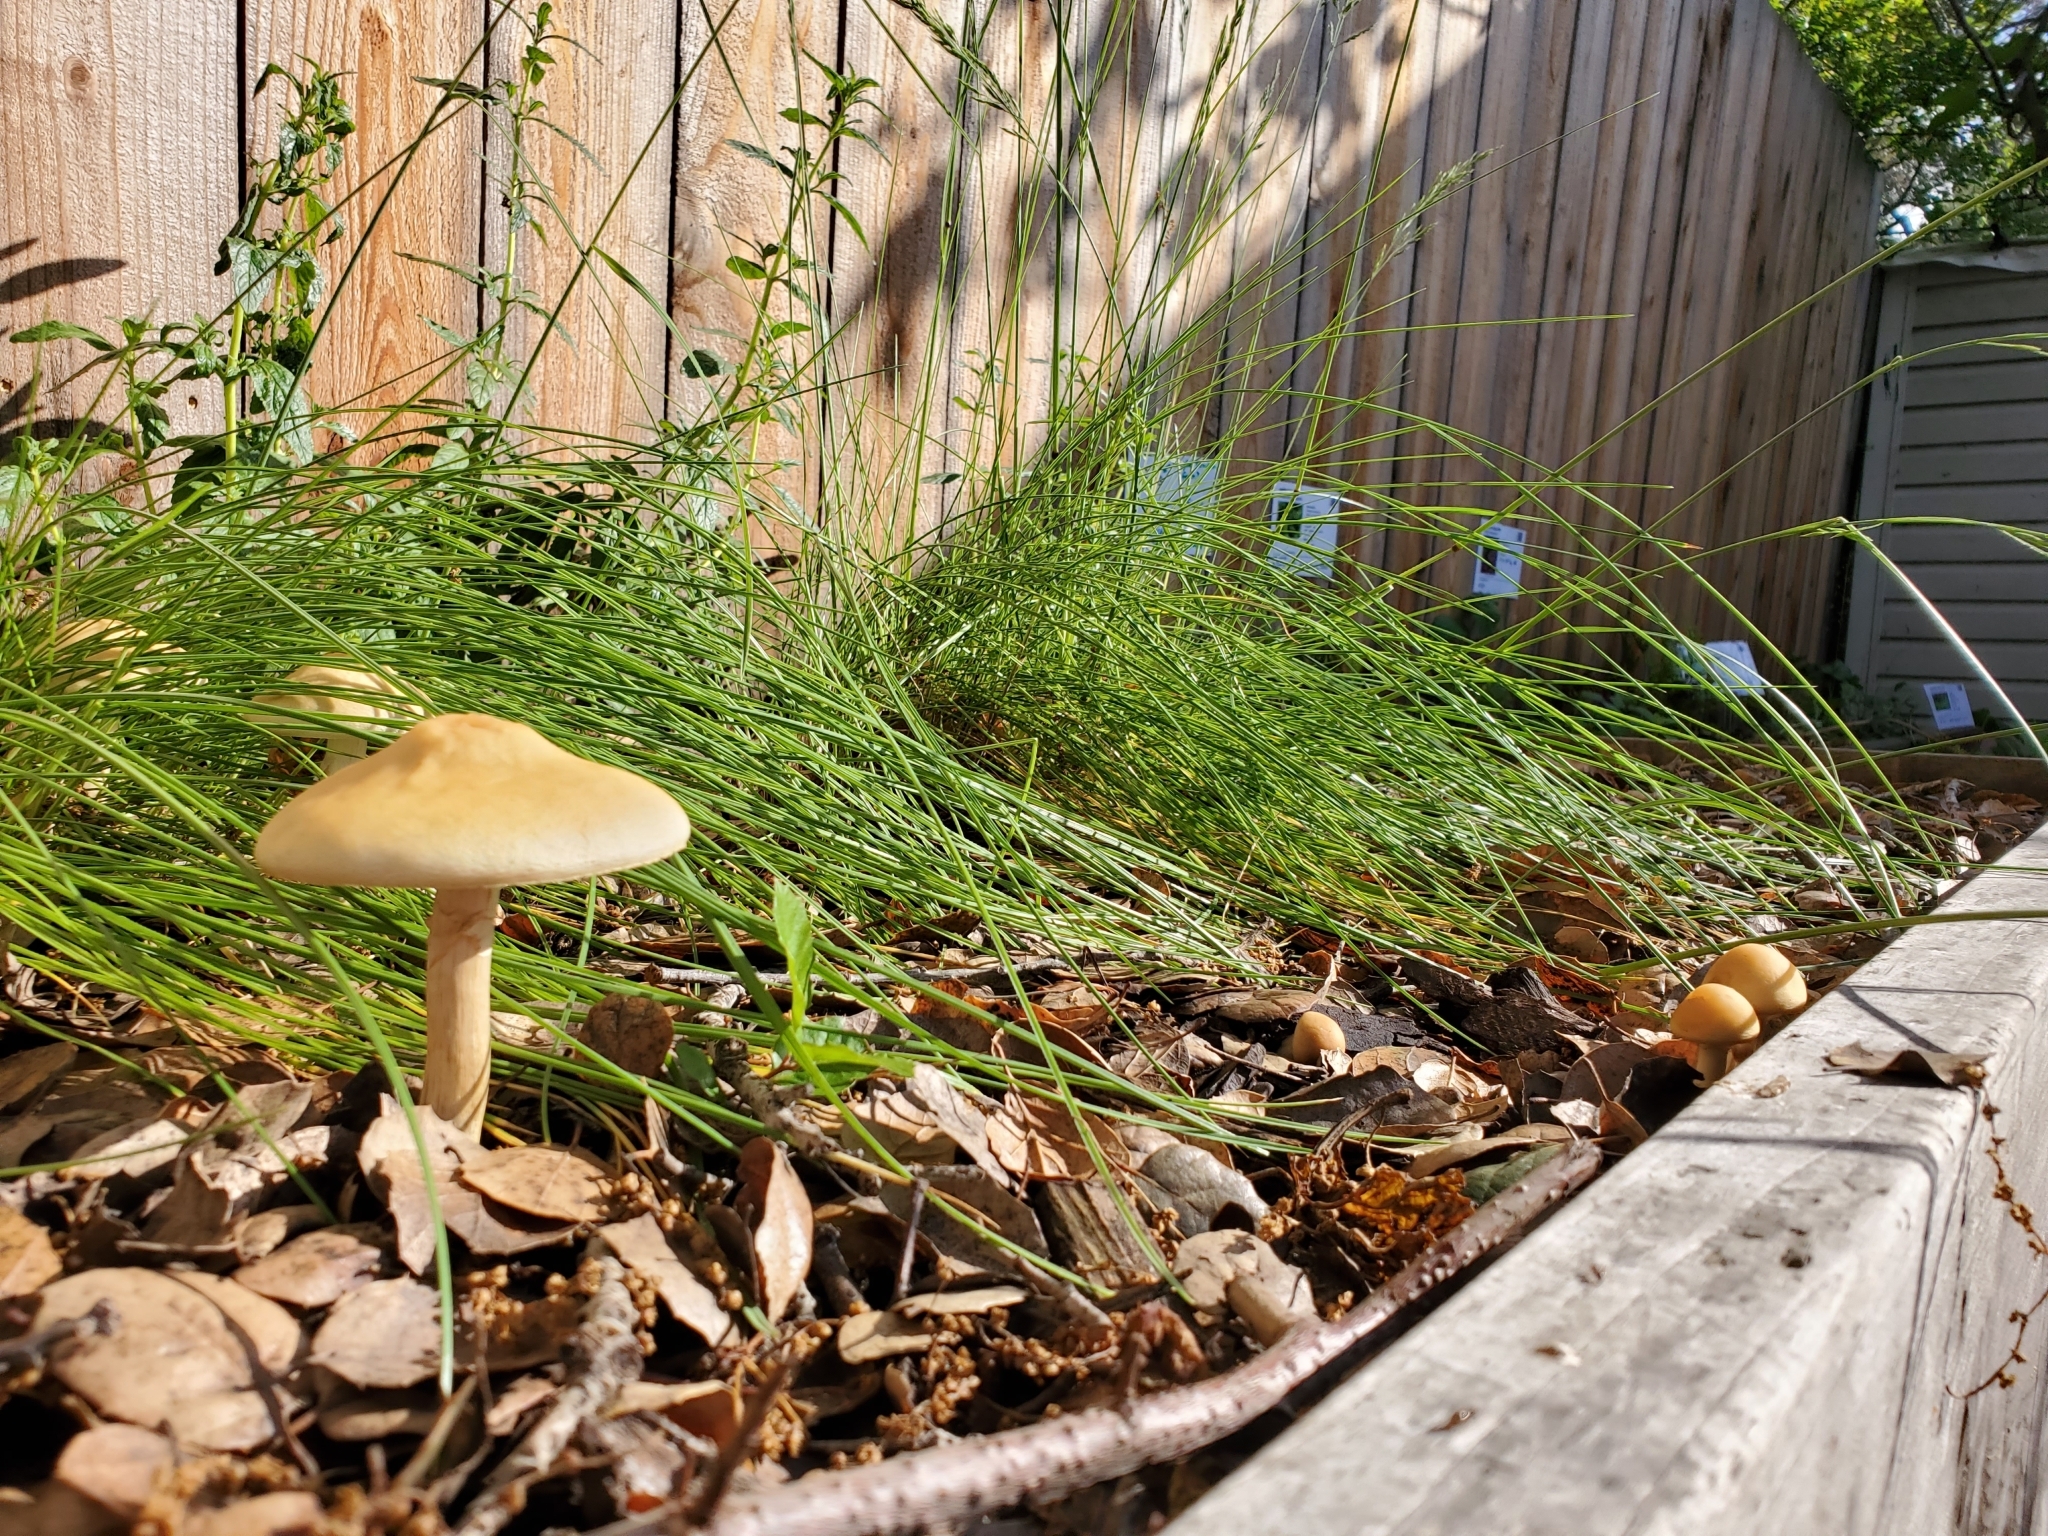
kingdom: Fungi
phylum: Basidiomycota
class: Agaricomycetes
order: Agaricales
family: Strophariaceae
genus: Agrocybe
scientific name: Agrocybe praecox
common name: Spring fieldcap
